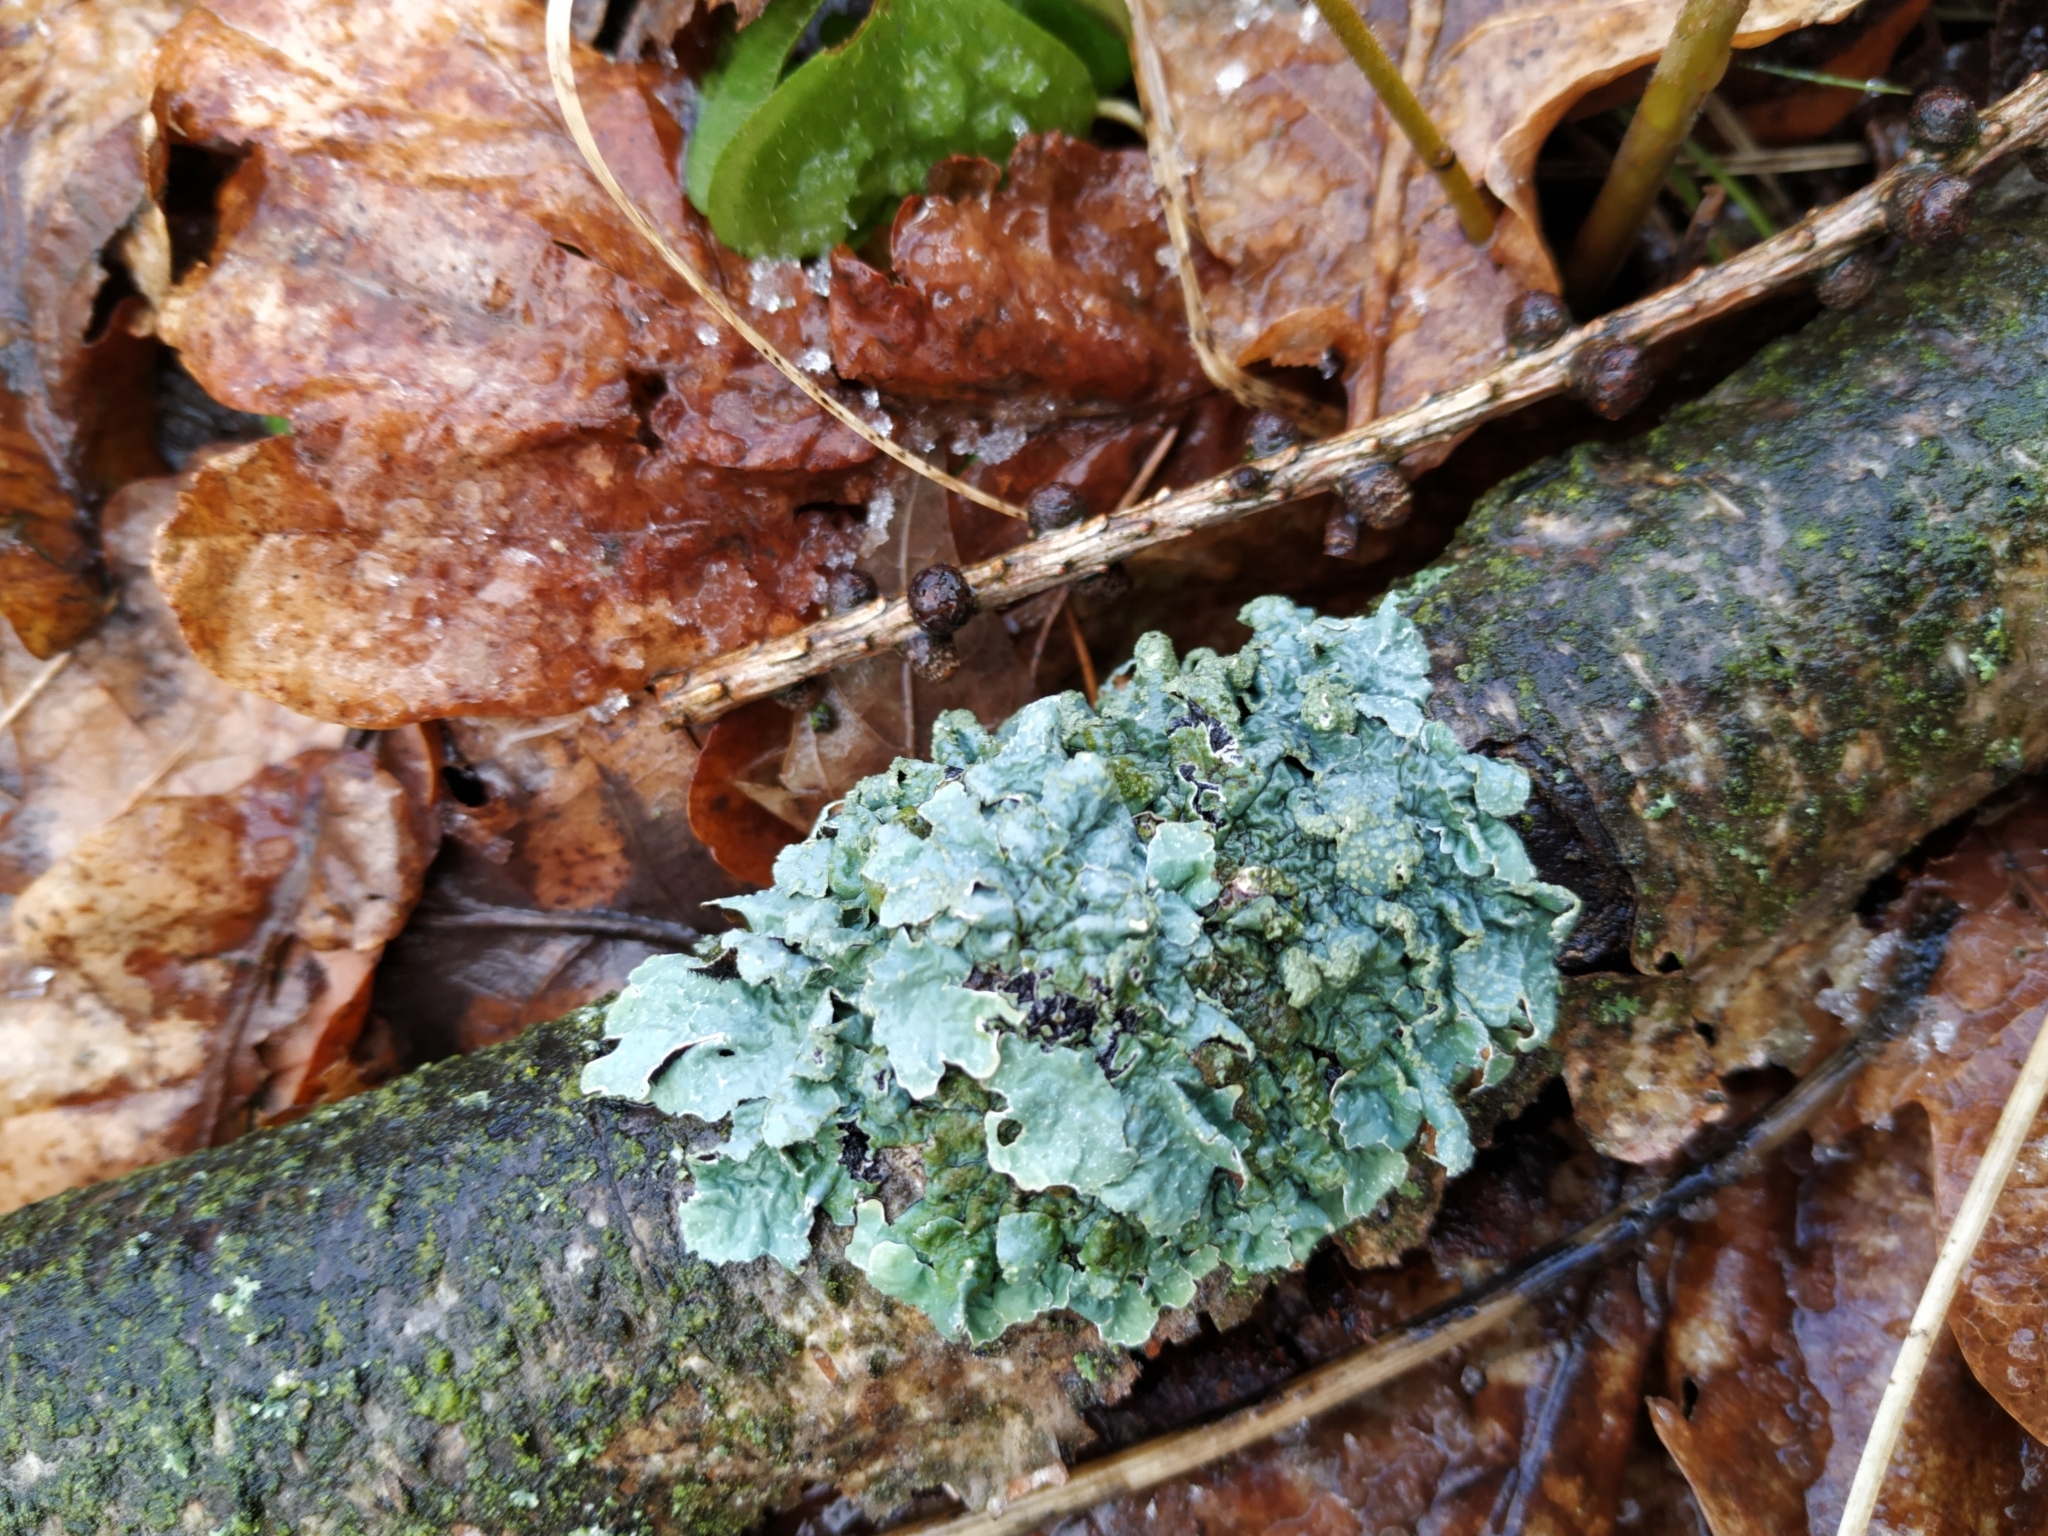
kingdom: Fungi
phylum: Ascomycota
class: Lecanoromycetes
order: Lecanorales
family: Parmeliaceae
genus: Parmelia
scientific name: Parmelia sulcata
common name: Netted shield lichen
